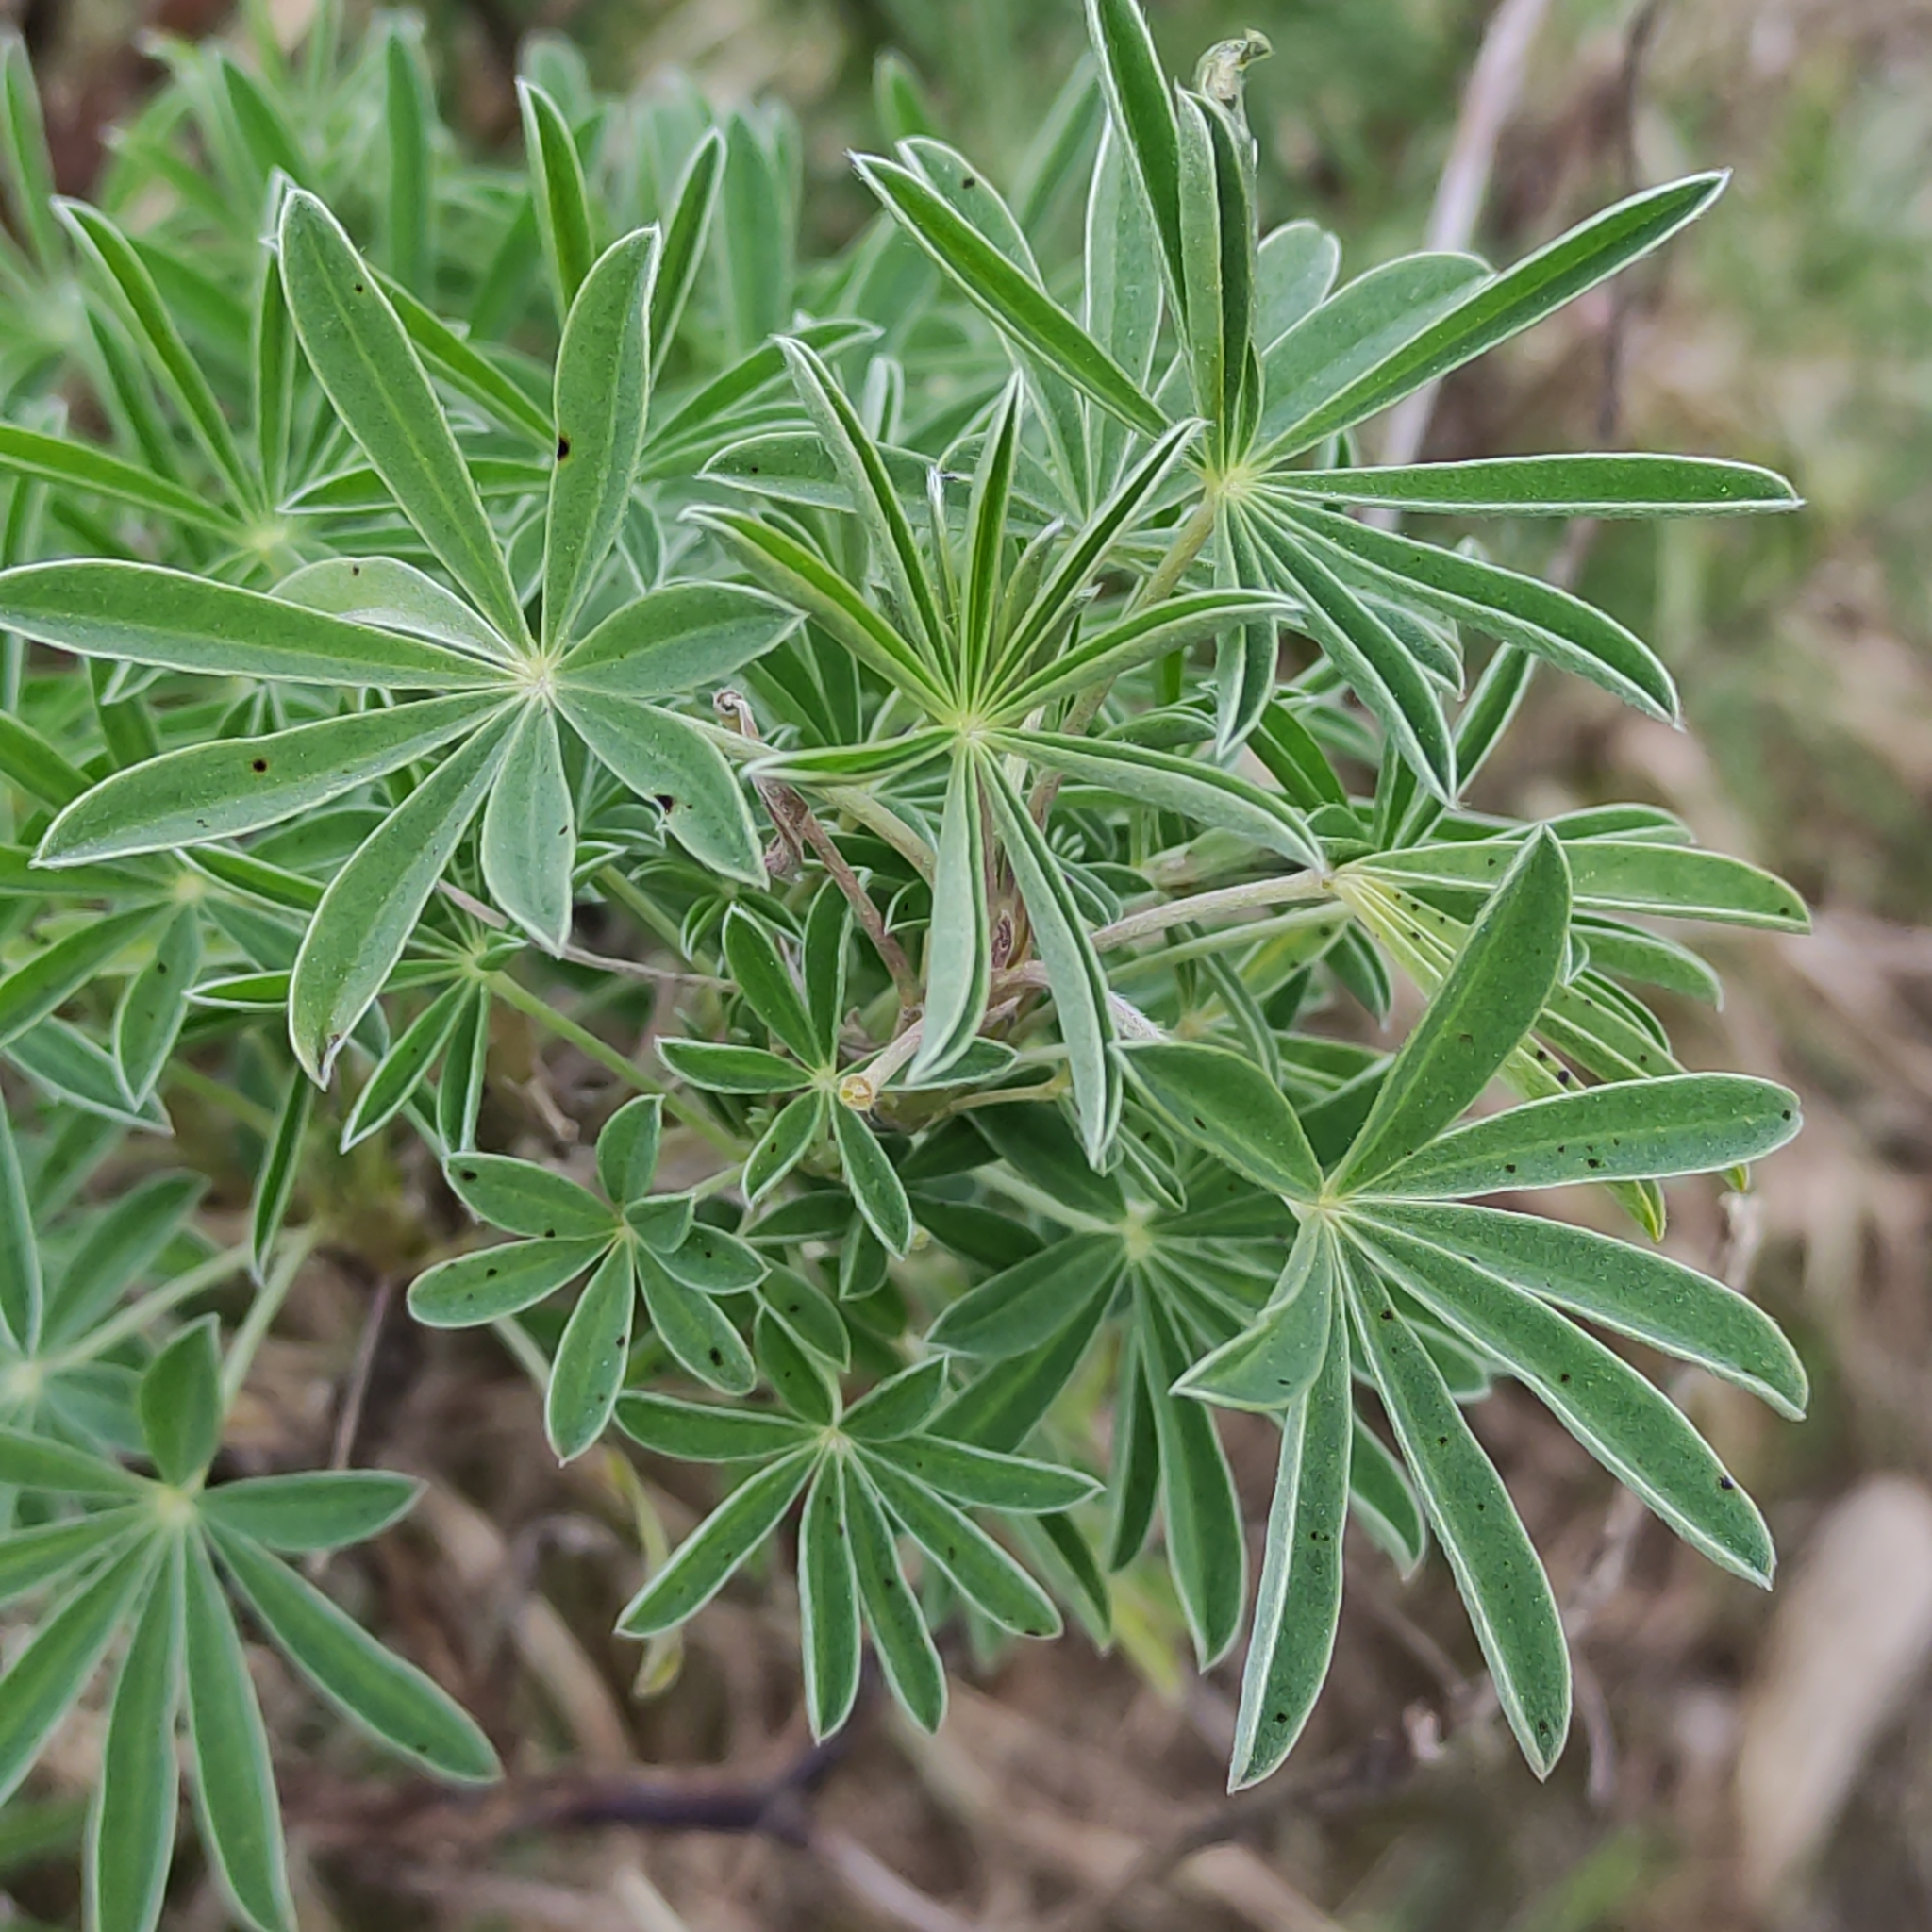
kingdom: Plantae
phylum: Tracheophyta
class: Magnoliopsida
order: Fabales
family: Fabaceae
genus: Lupinus
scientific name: Lupinus arboreus
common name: Yellow bush lupine
